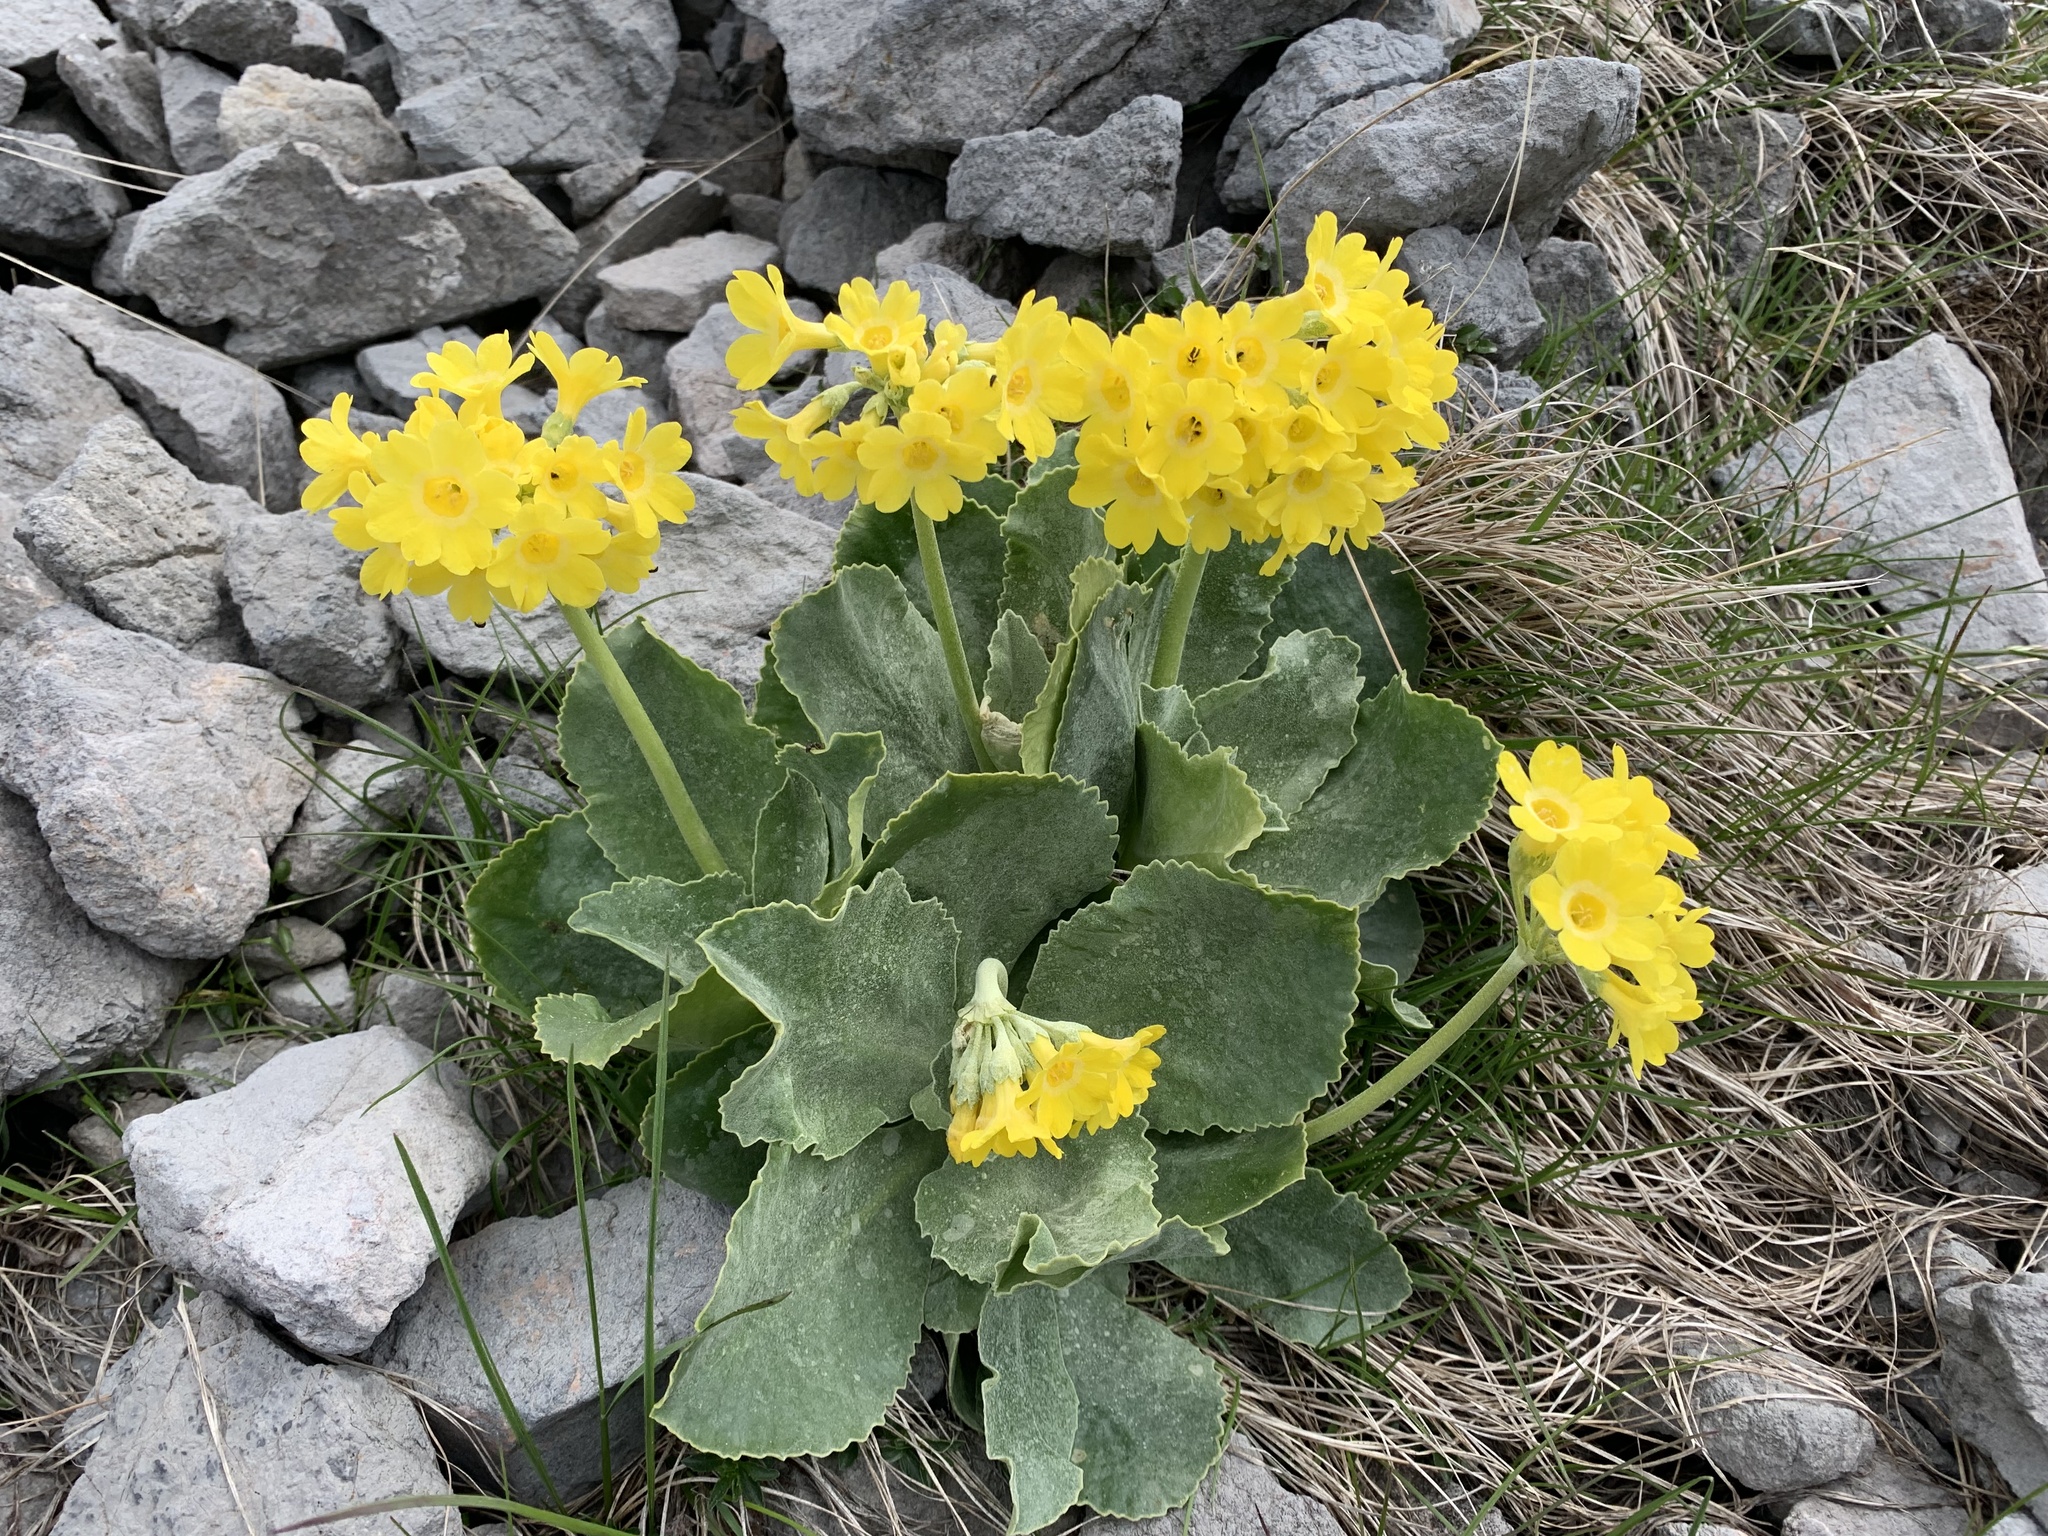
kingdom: Plantae
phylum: Tracheophyta
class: Magnoliopsida
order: Ericales
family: Primulaceae
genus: Primula
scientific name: Primula auricula
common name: Auricula
